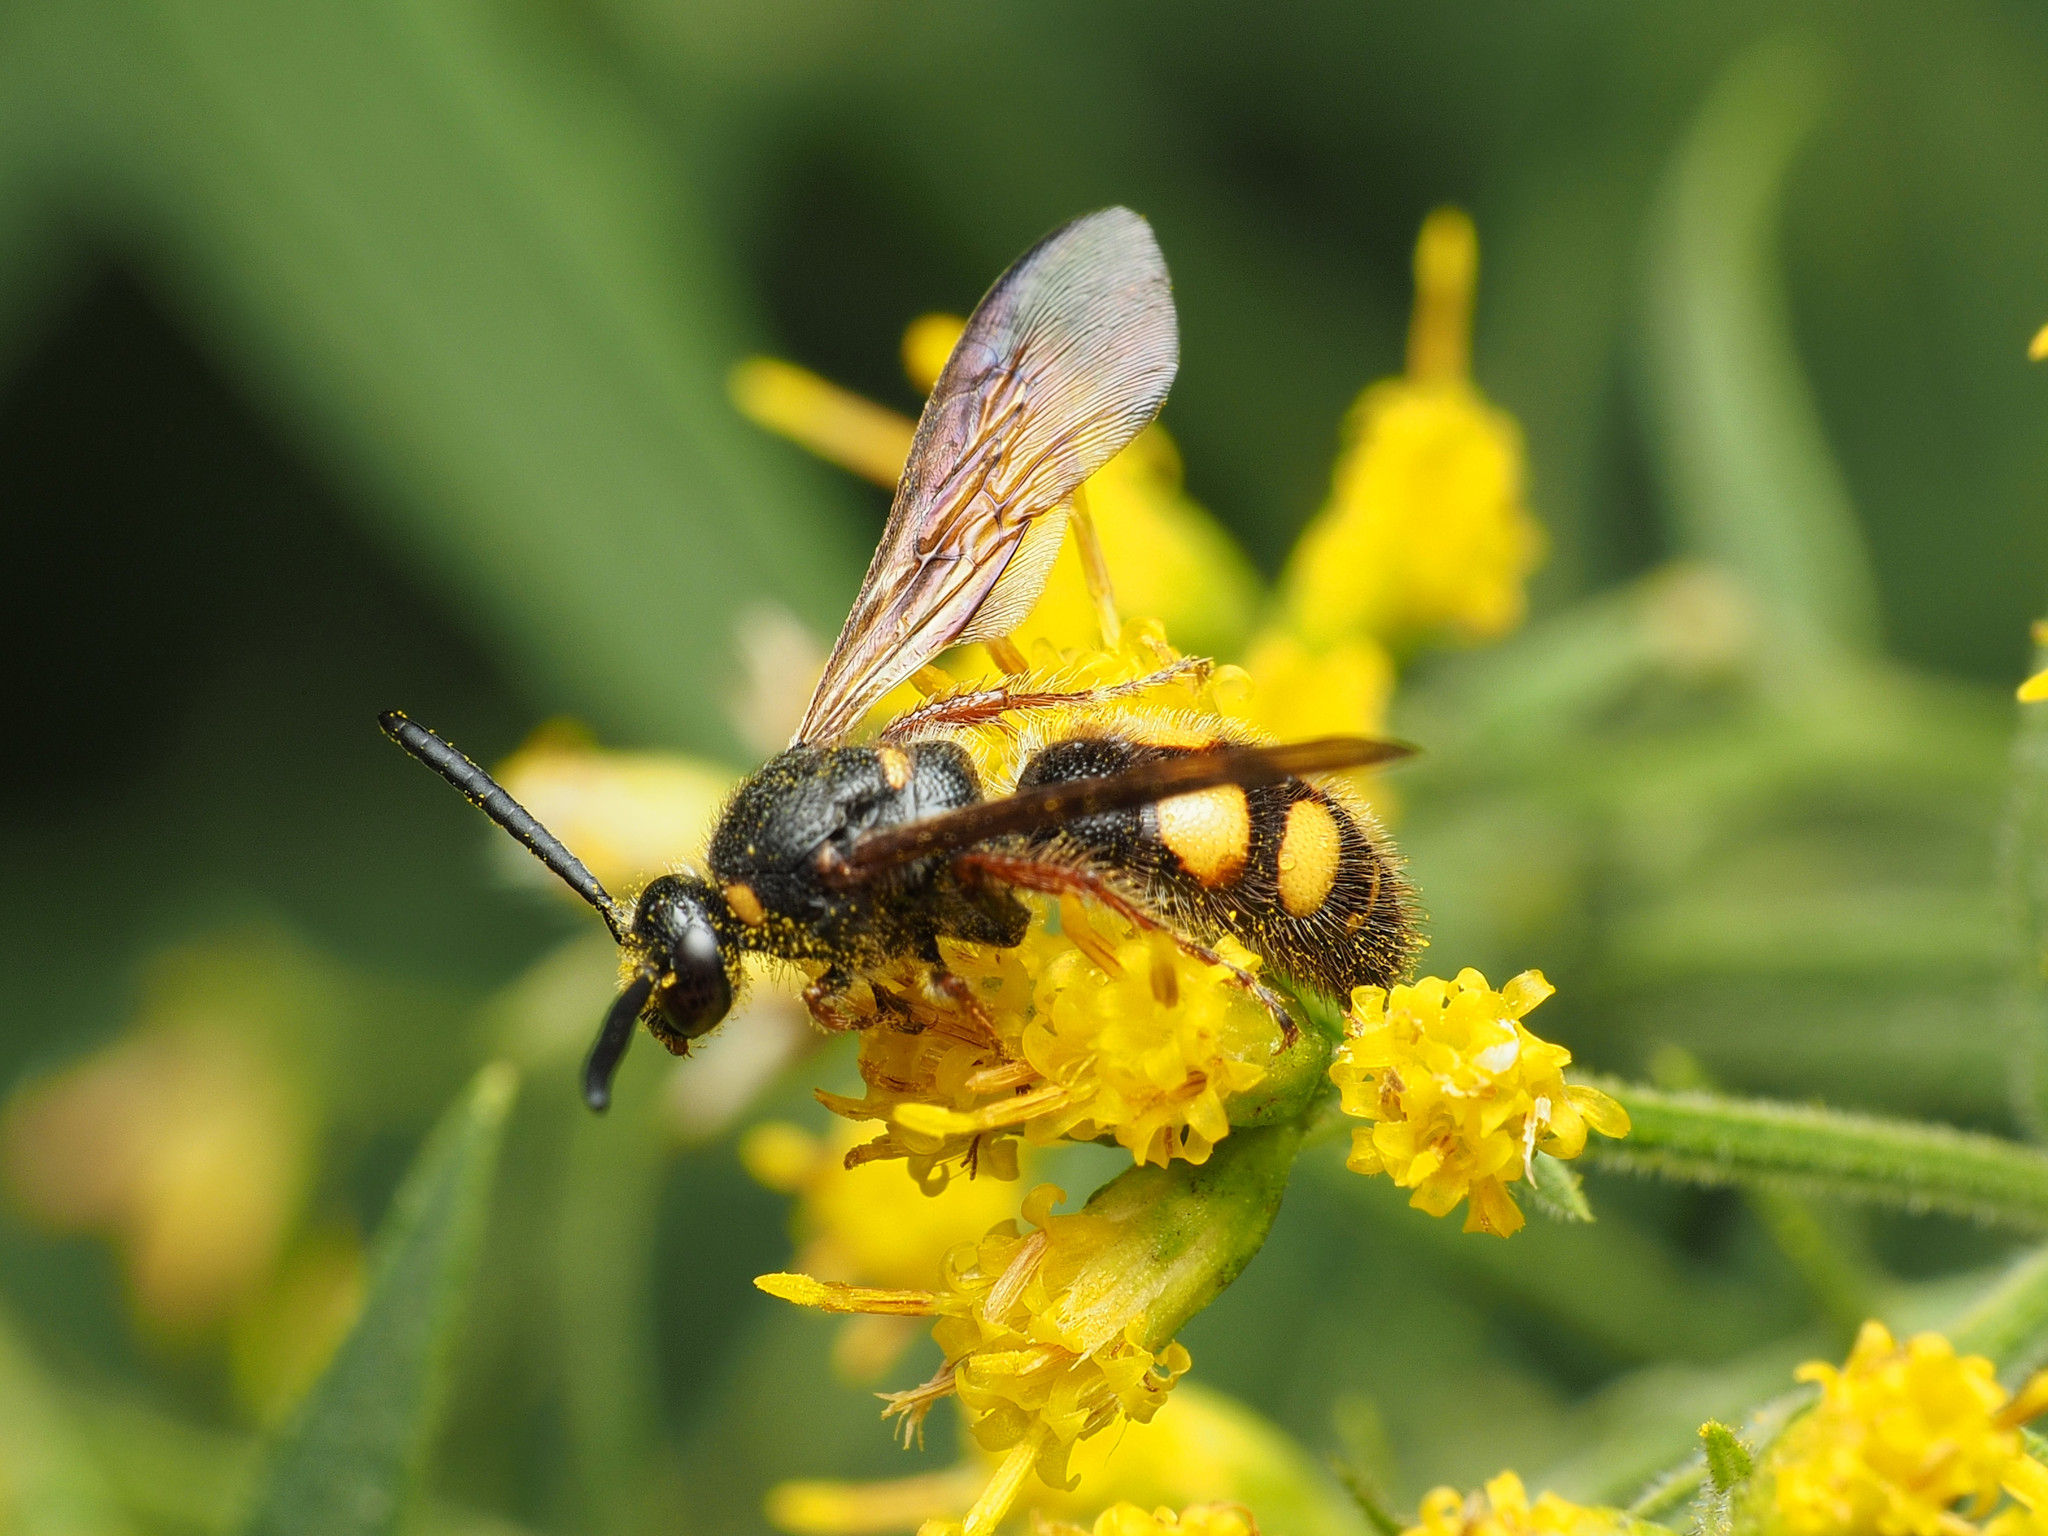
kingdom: Animalia
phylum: Arthropoda
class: Insecta
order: Hymenoptera
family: Scoliidae
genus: Scolia
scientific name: Scolia nobilitata
